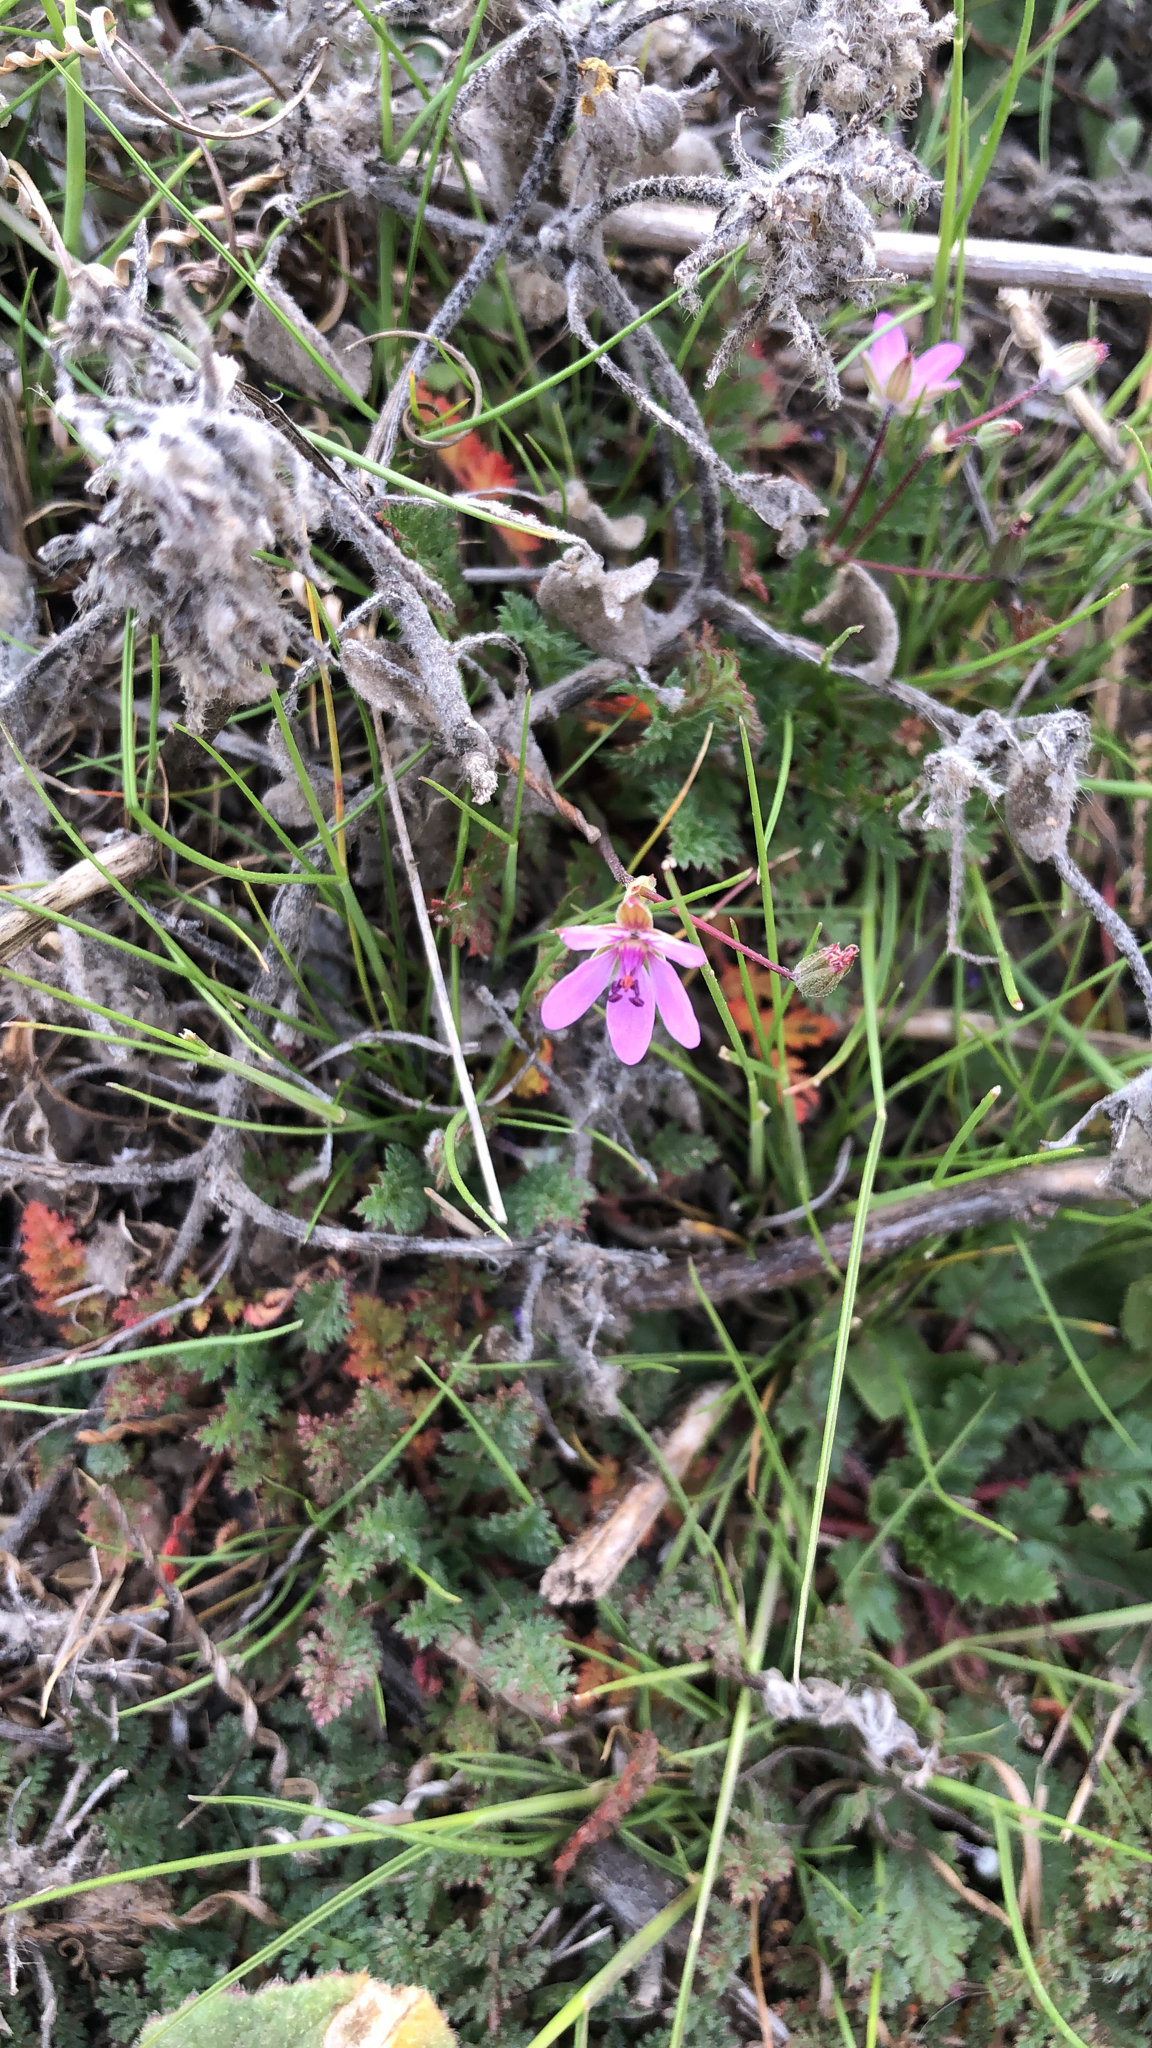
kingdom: Plantae
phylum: Tracheophyta
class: Magnoliopsida
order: Geraniales
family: Geraniaceae
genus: Erodium
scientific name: Erodium cicutarium
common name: Common stork's-bill
